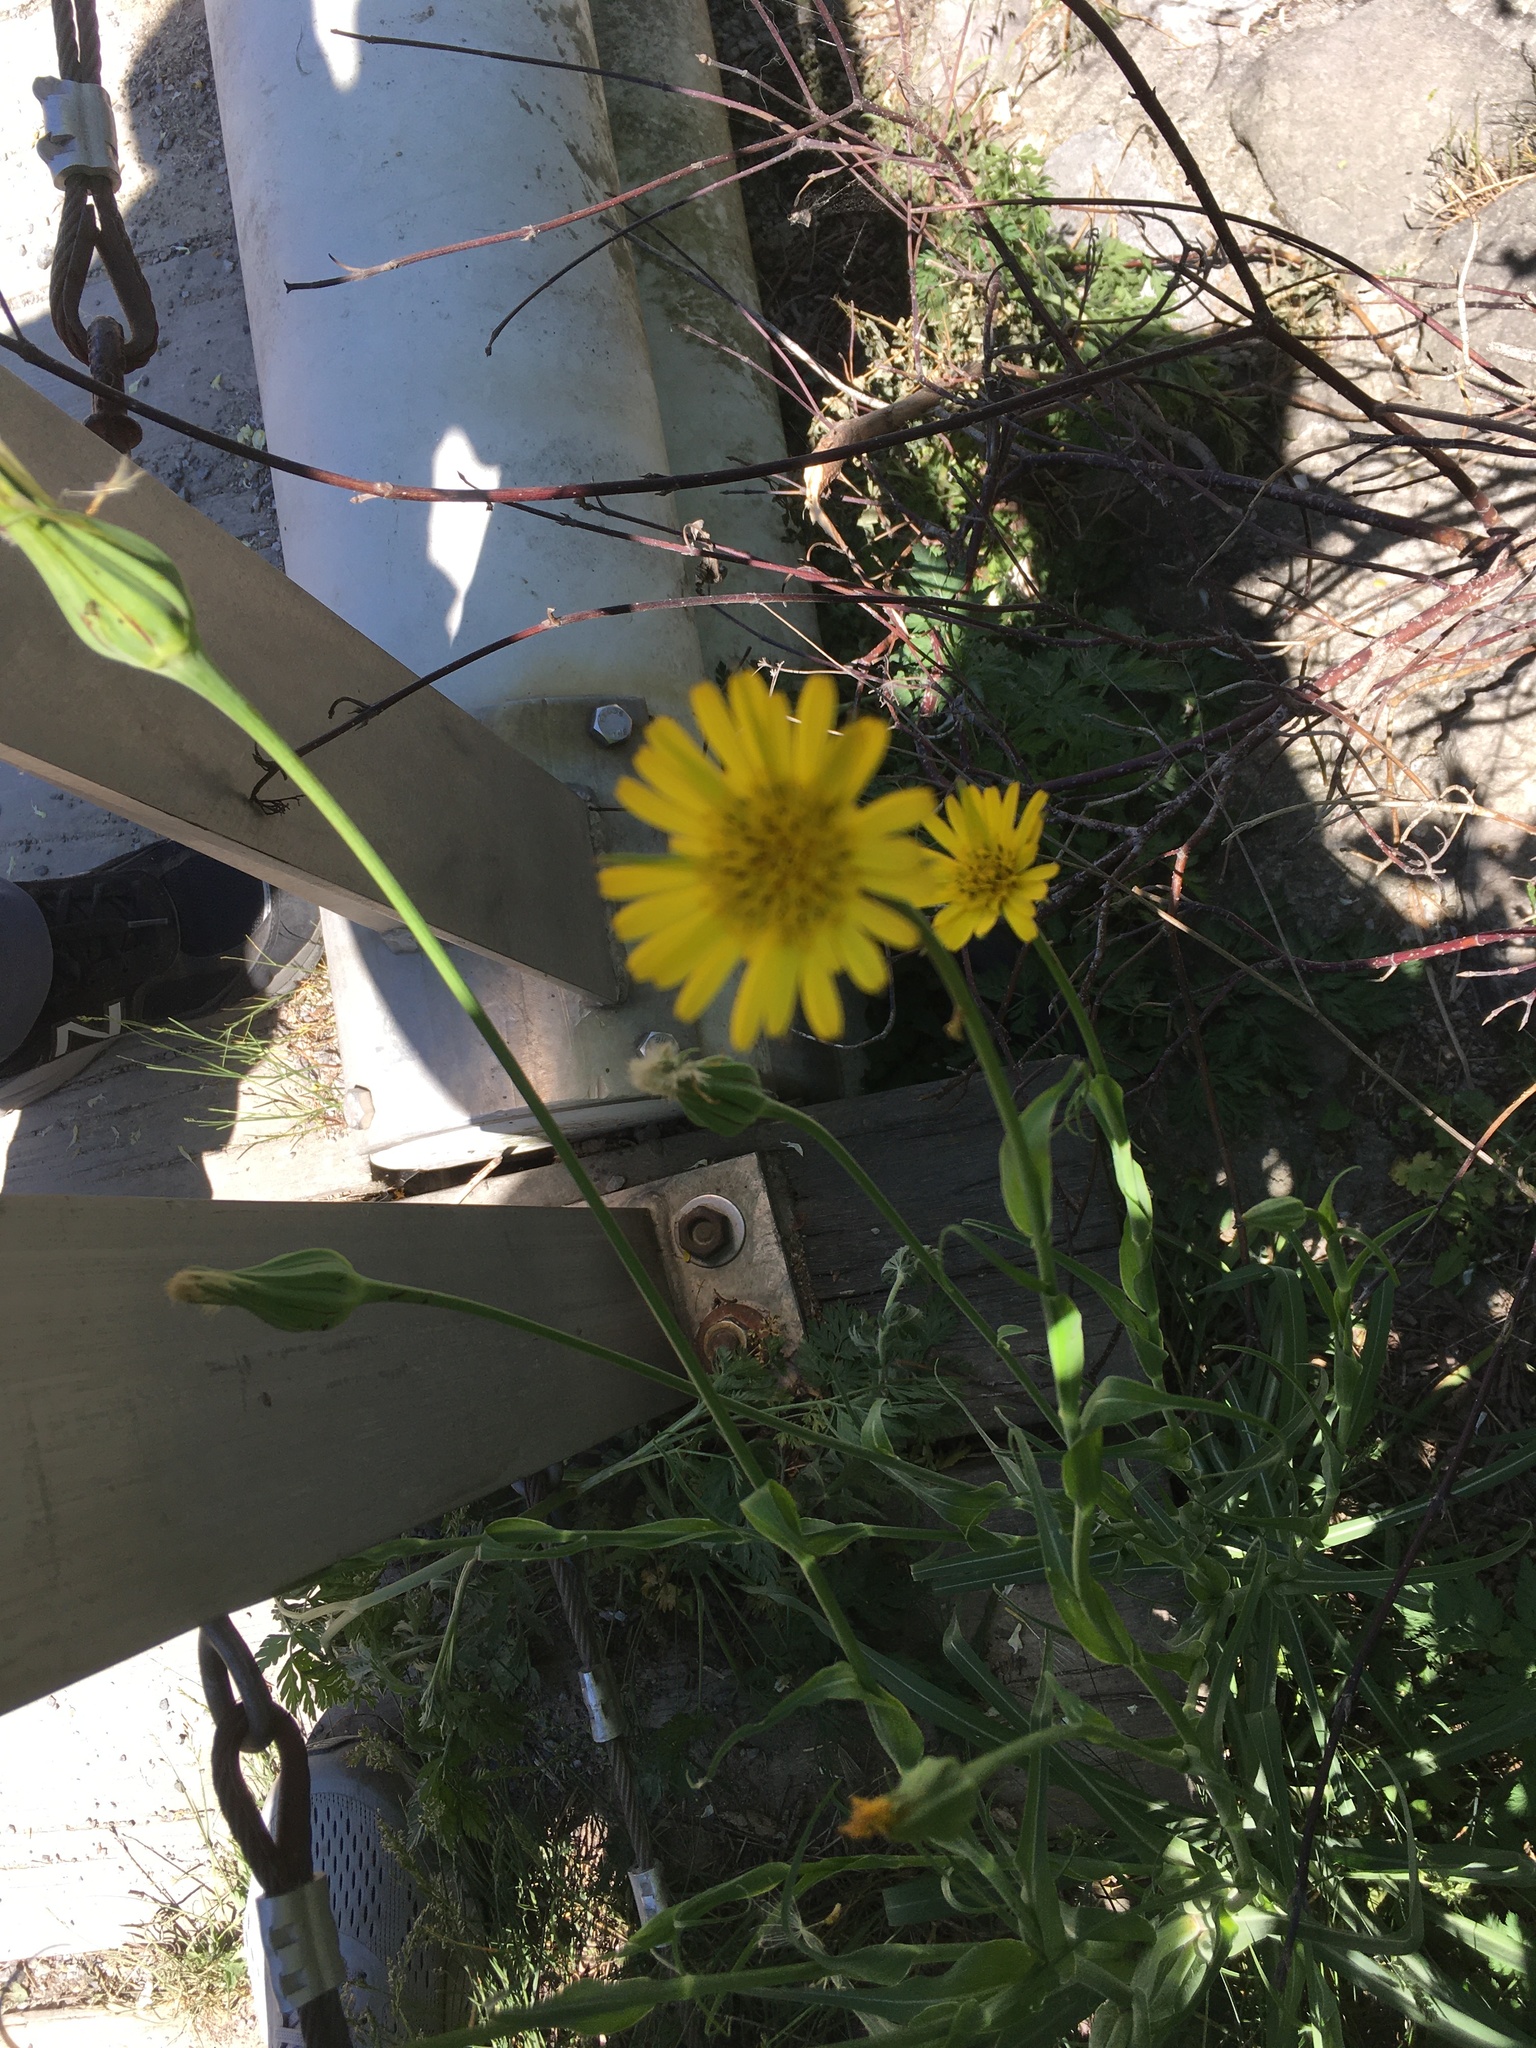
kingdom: Plantae
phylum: Tracheophyta
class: Magnoliopsida
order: Asterales
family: Asteraceae
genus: Tragopogon
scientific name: Tragopogon pratensis
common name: Goat's-beard
